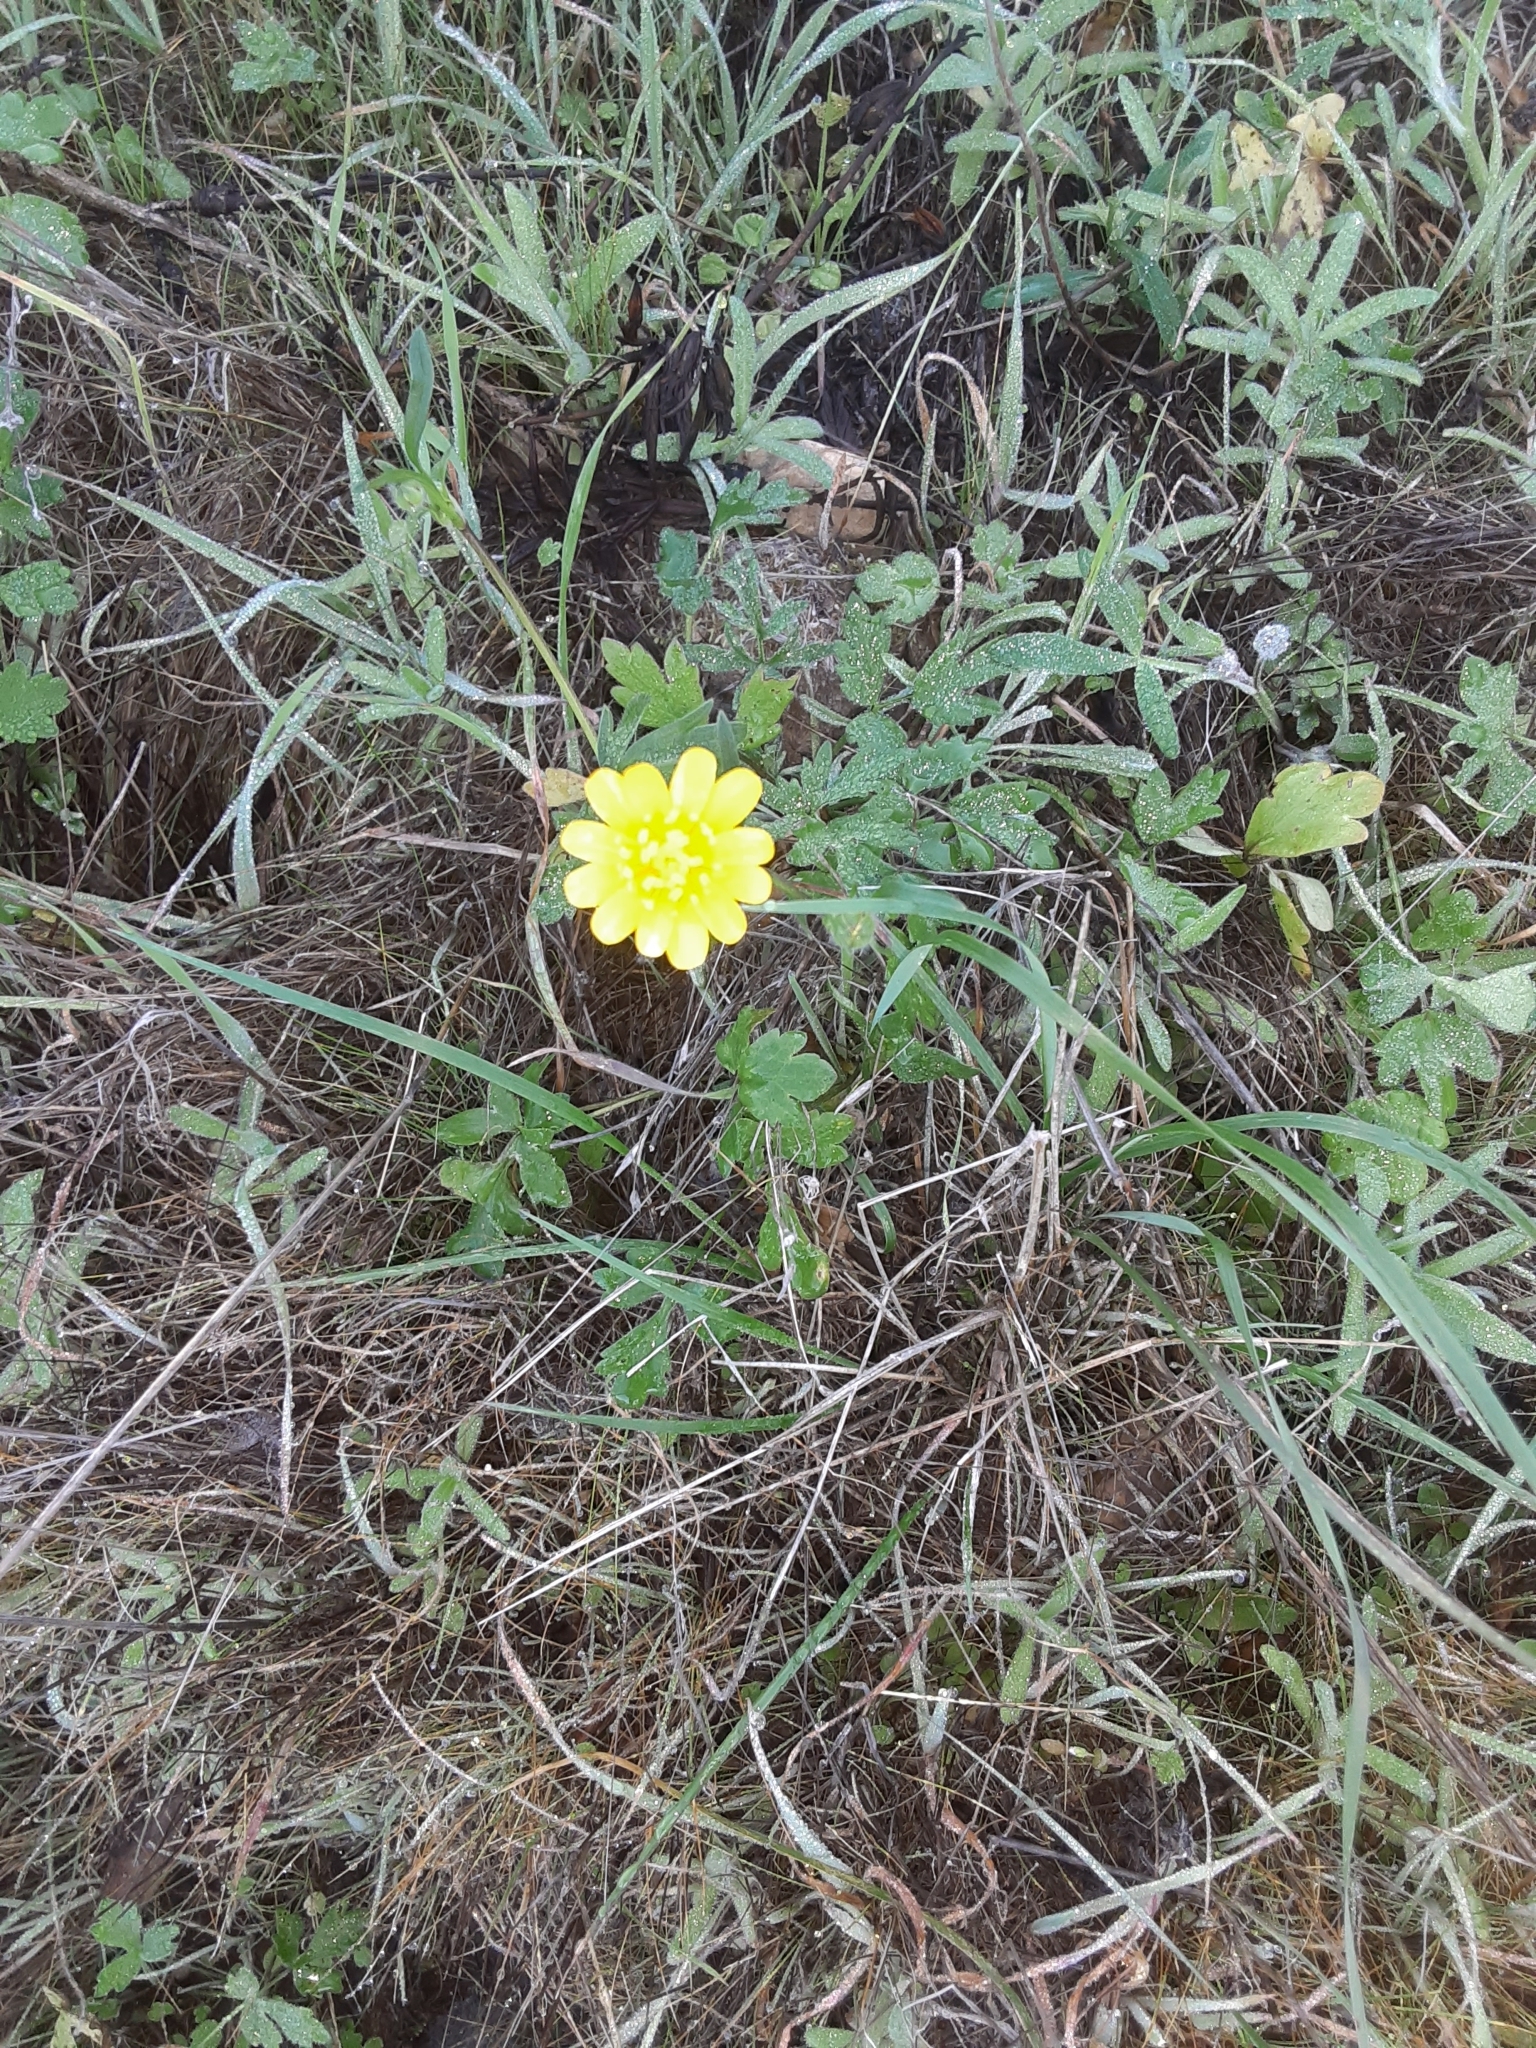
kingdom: Plantae
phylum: Tracheophyta
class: Magnoliopsida
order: Ranunculales
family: Ranunculaceae
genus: Ranunculus
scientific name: Ranunculus californicus
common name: California buttercup
